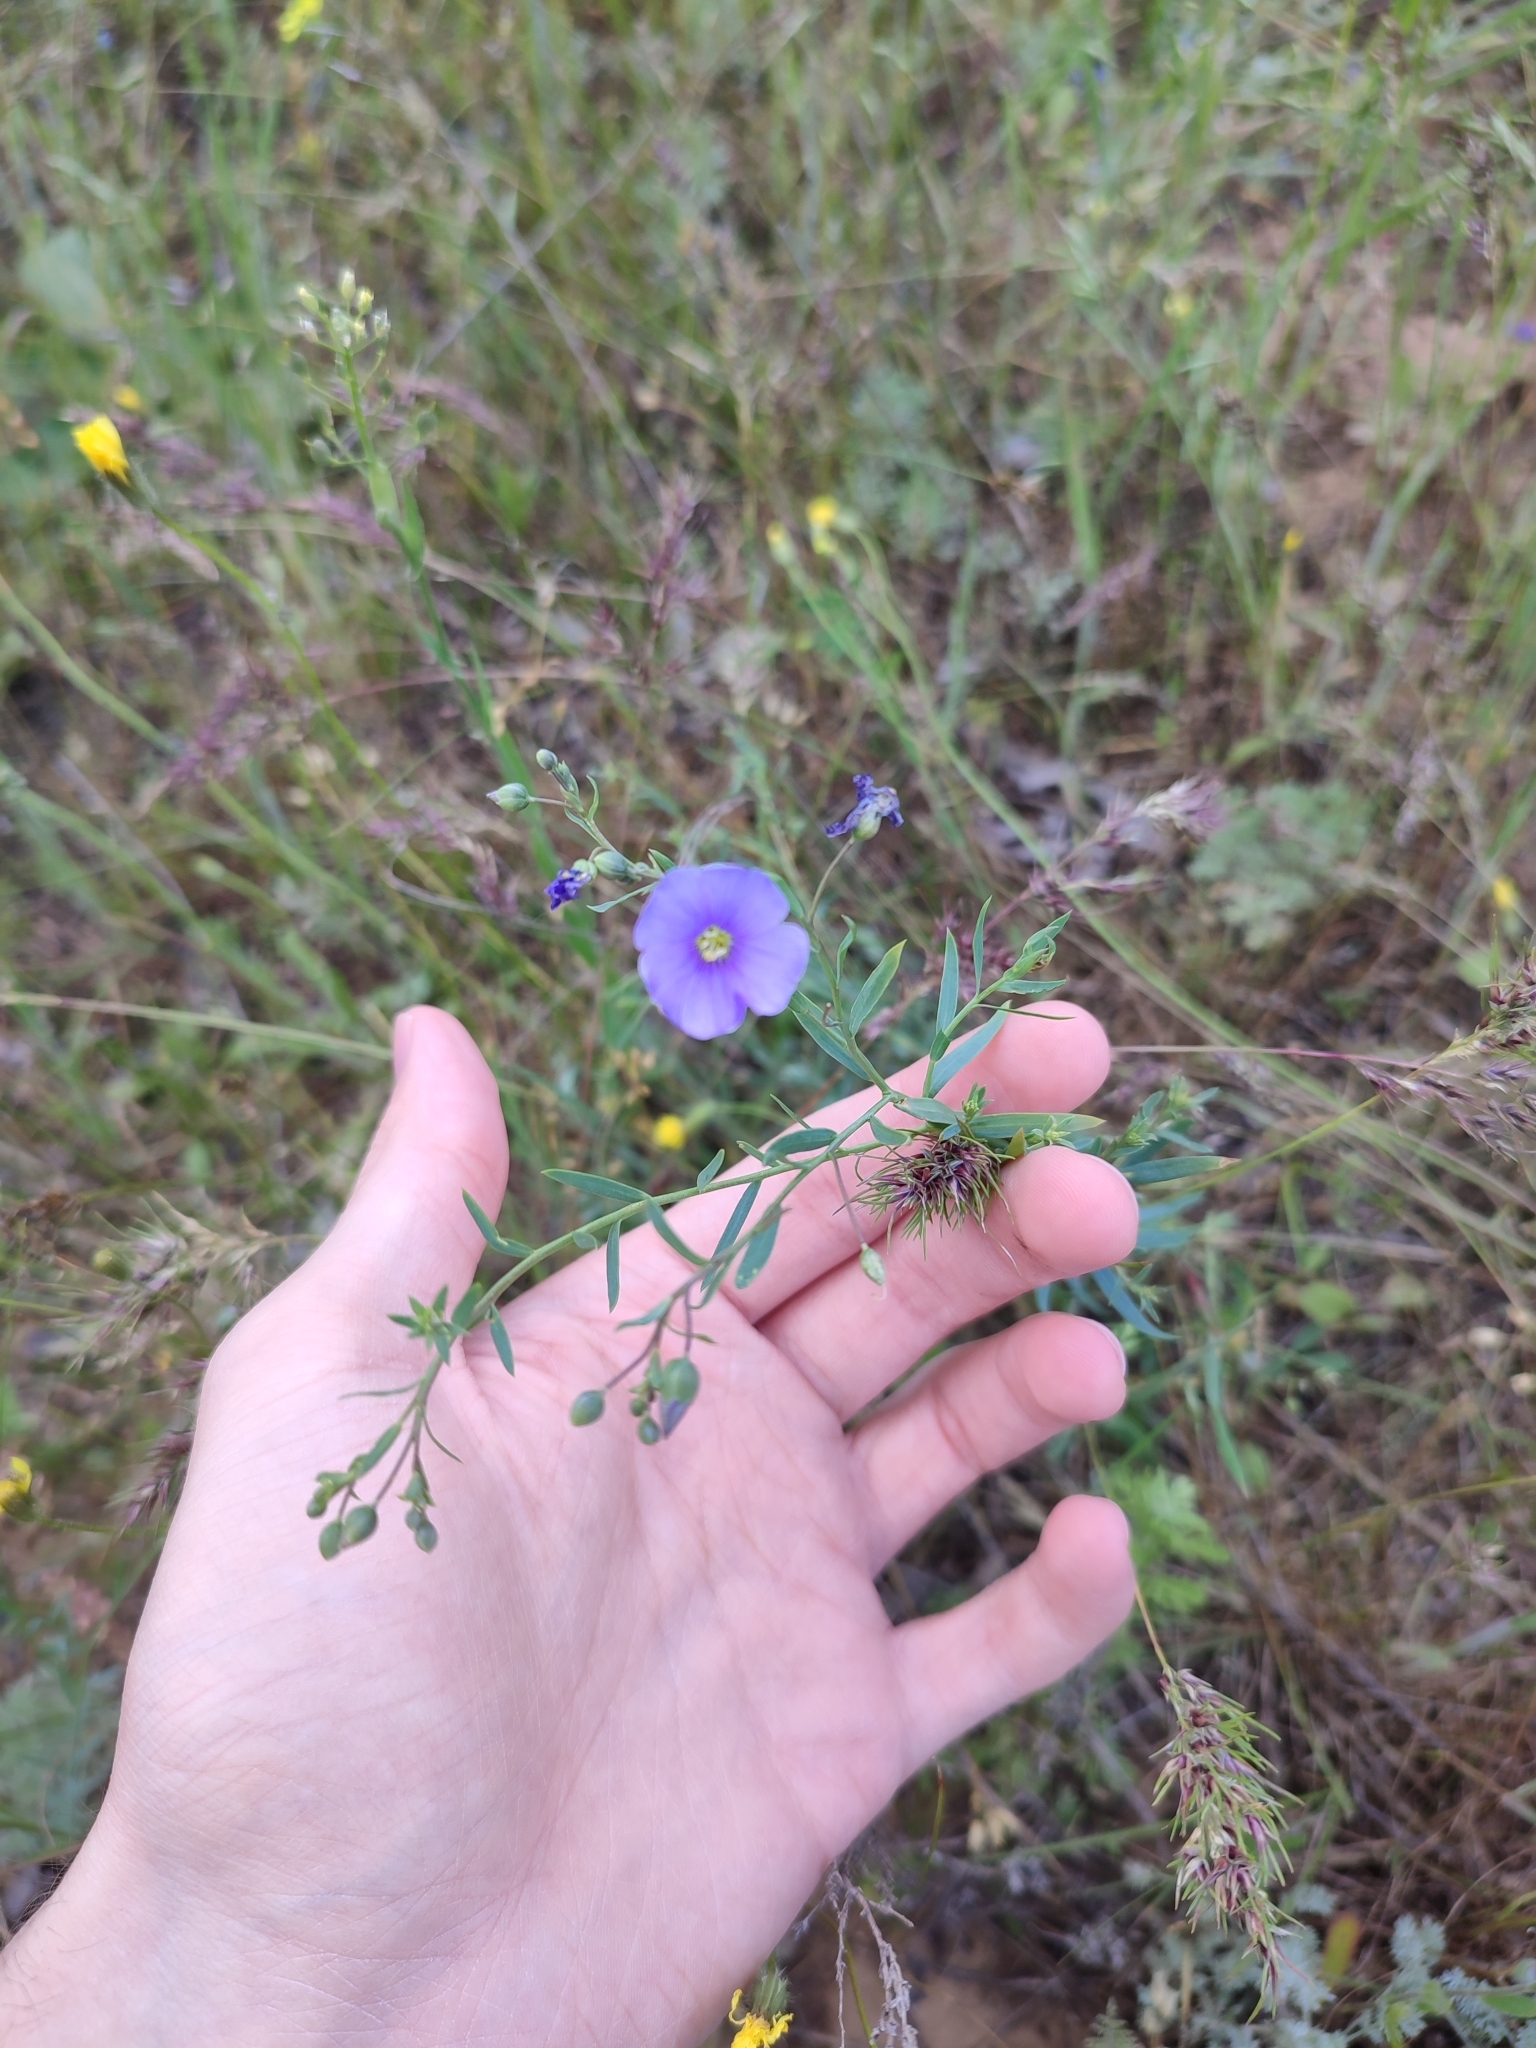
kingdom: Plantae
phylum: Tracheophyta
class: Magnoliopsida
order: Malpighiales
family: Linaceae
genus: Linum
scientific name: Linum austriacum
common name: Austrian flax
